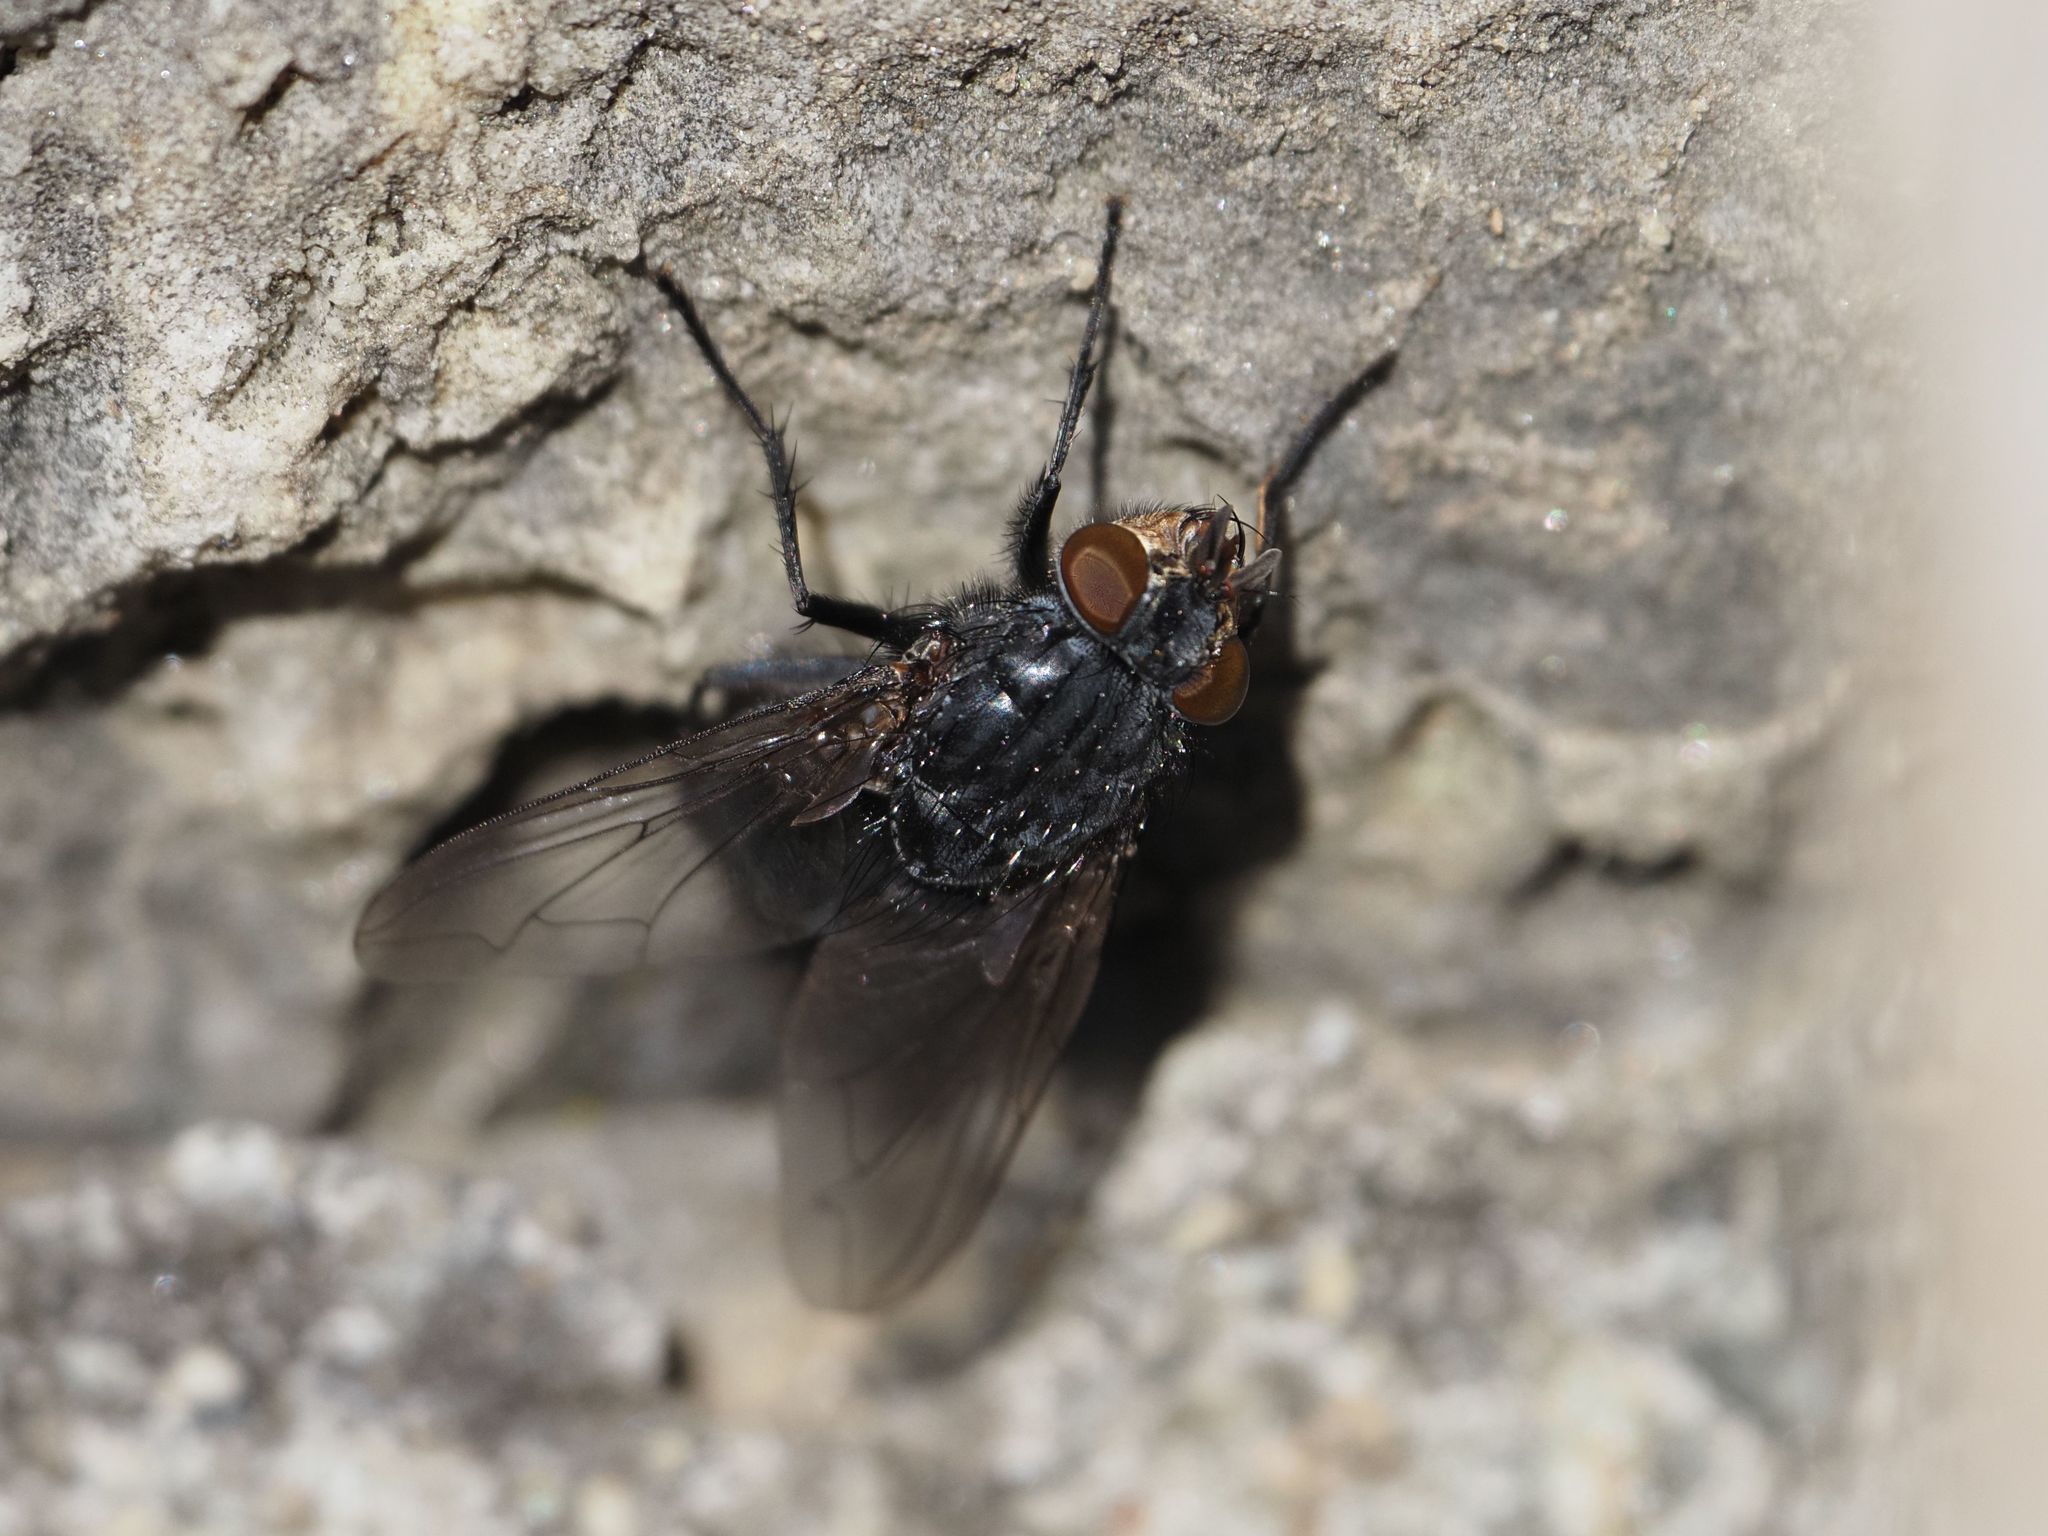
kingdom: Animalia
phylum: Arthropoda
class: Insecta
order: Diptera
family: Calliphoridae
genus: Calliphora
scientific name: Calliphora vicina
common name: Common blow flie
